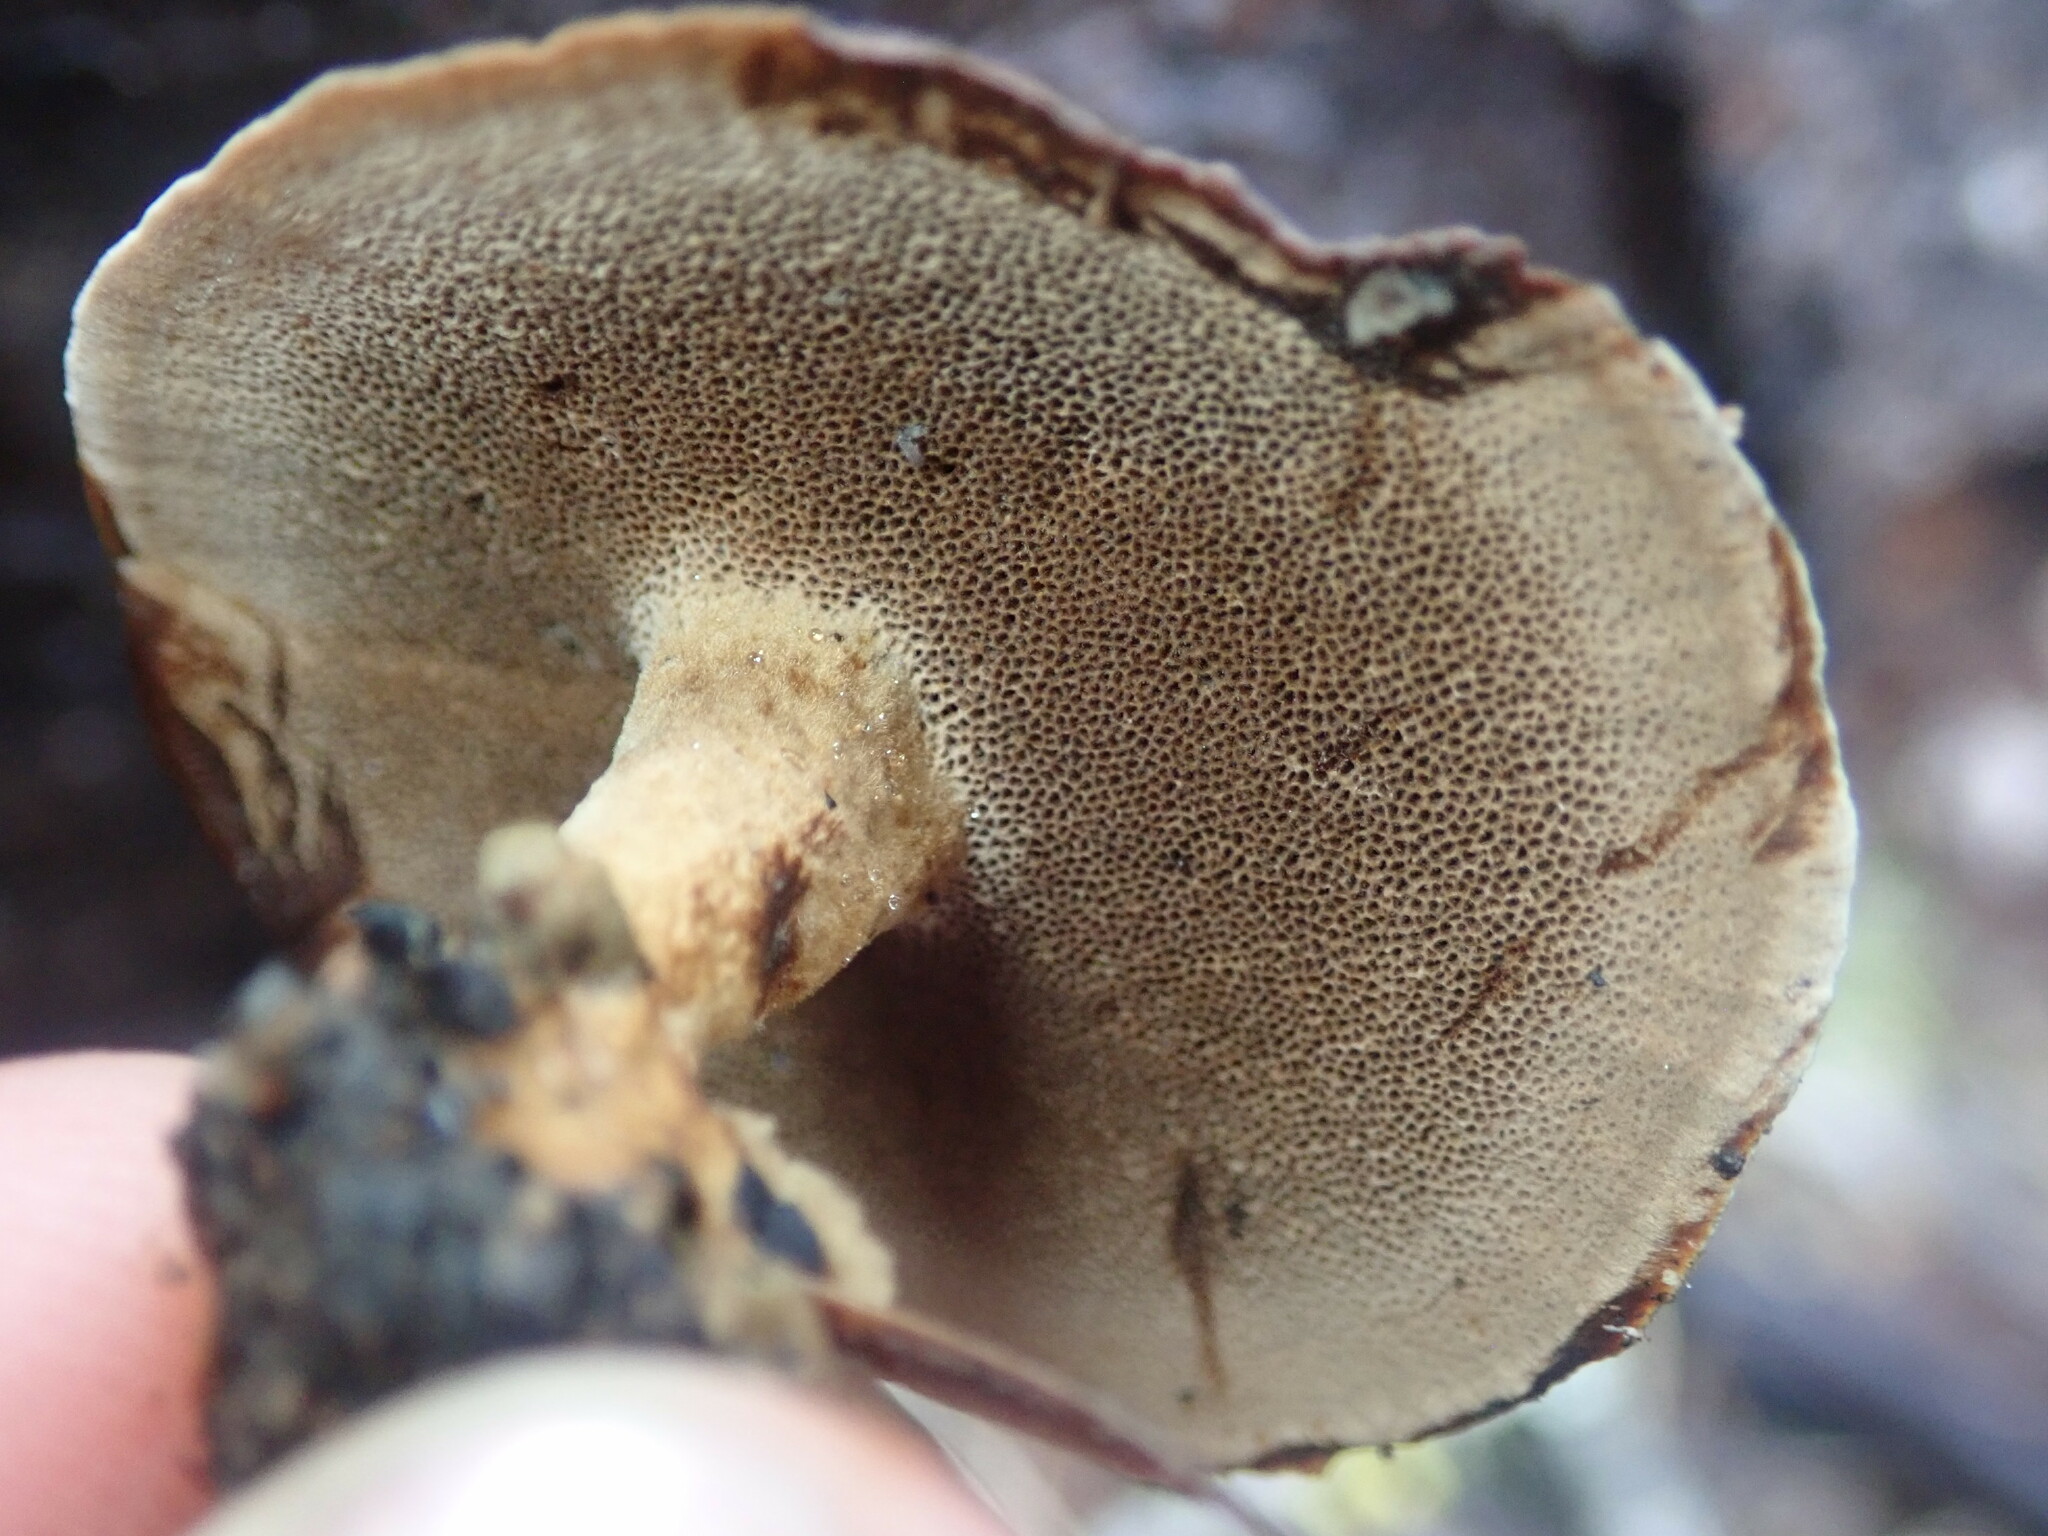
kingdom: Fungi
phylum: Basidiomycota
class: Agaricomycetes
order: Hymenochaetales
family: Hymenochaetaceae
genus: Coltricia
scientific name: Coltricia perennis
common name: Tiger's eye
